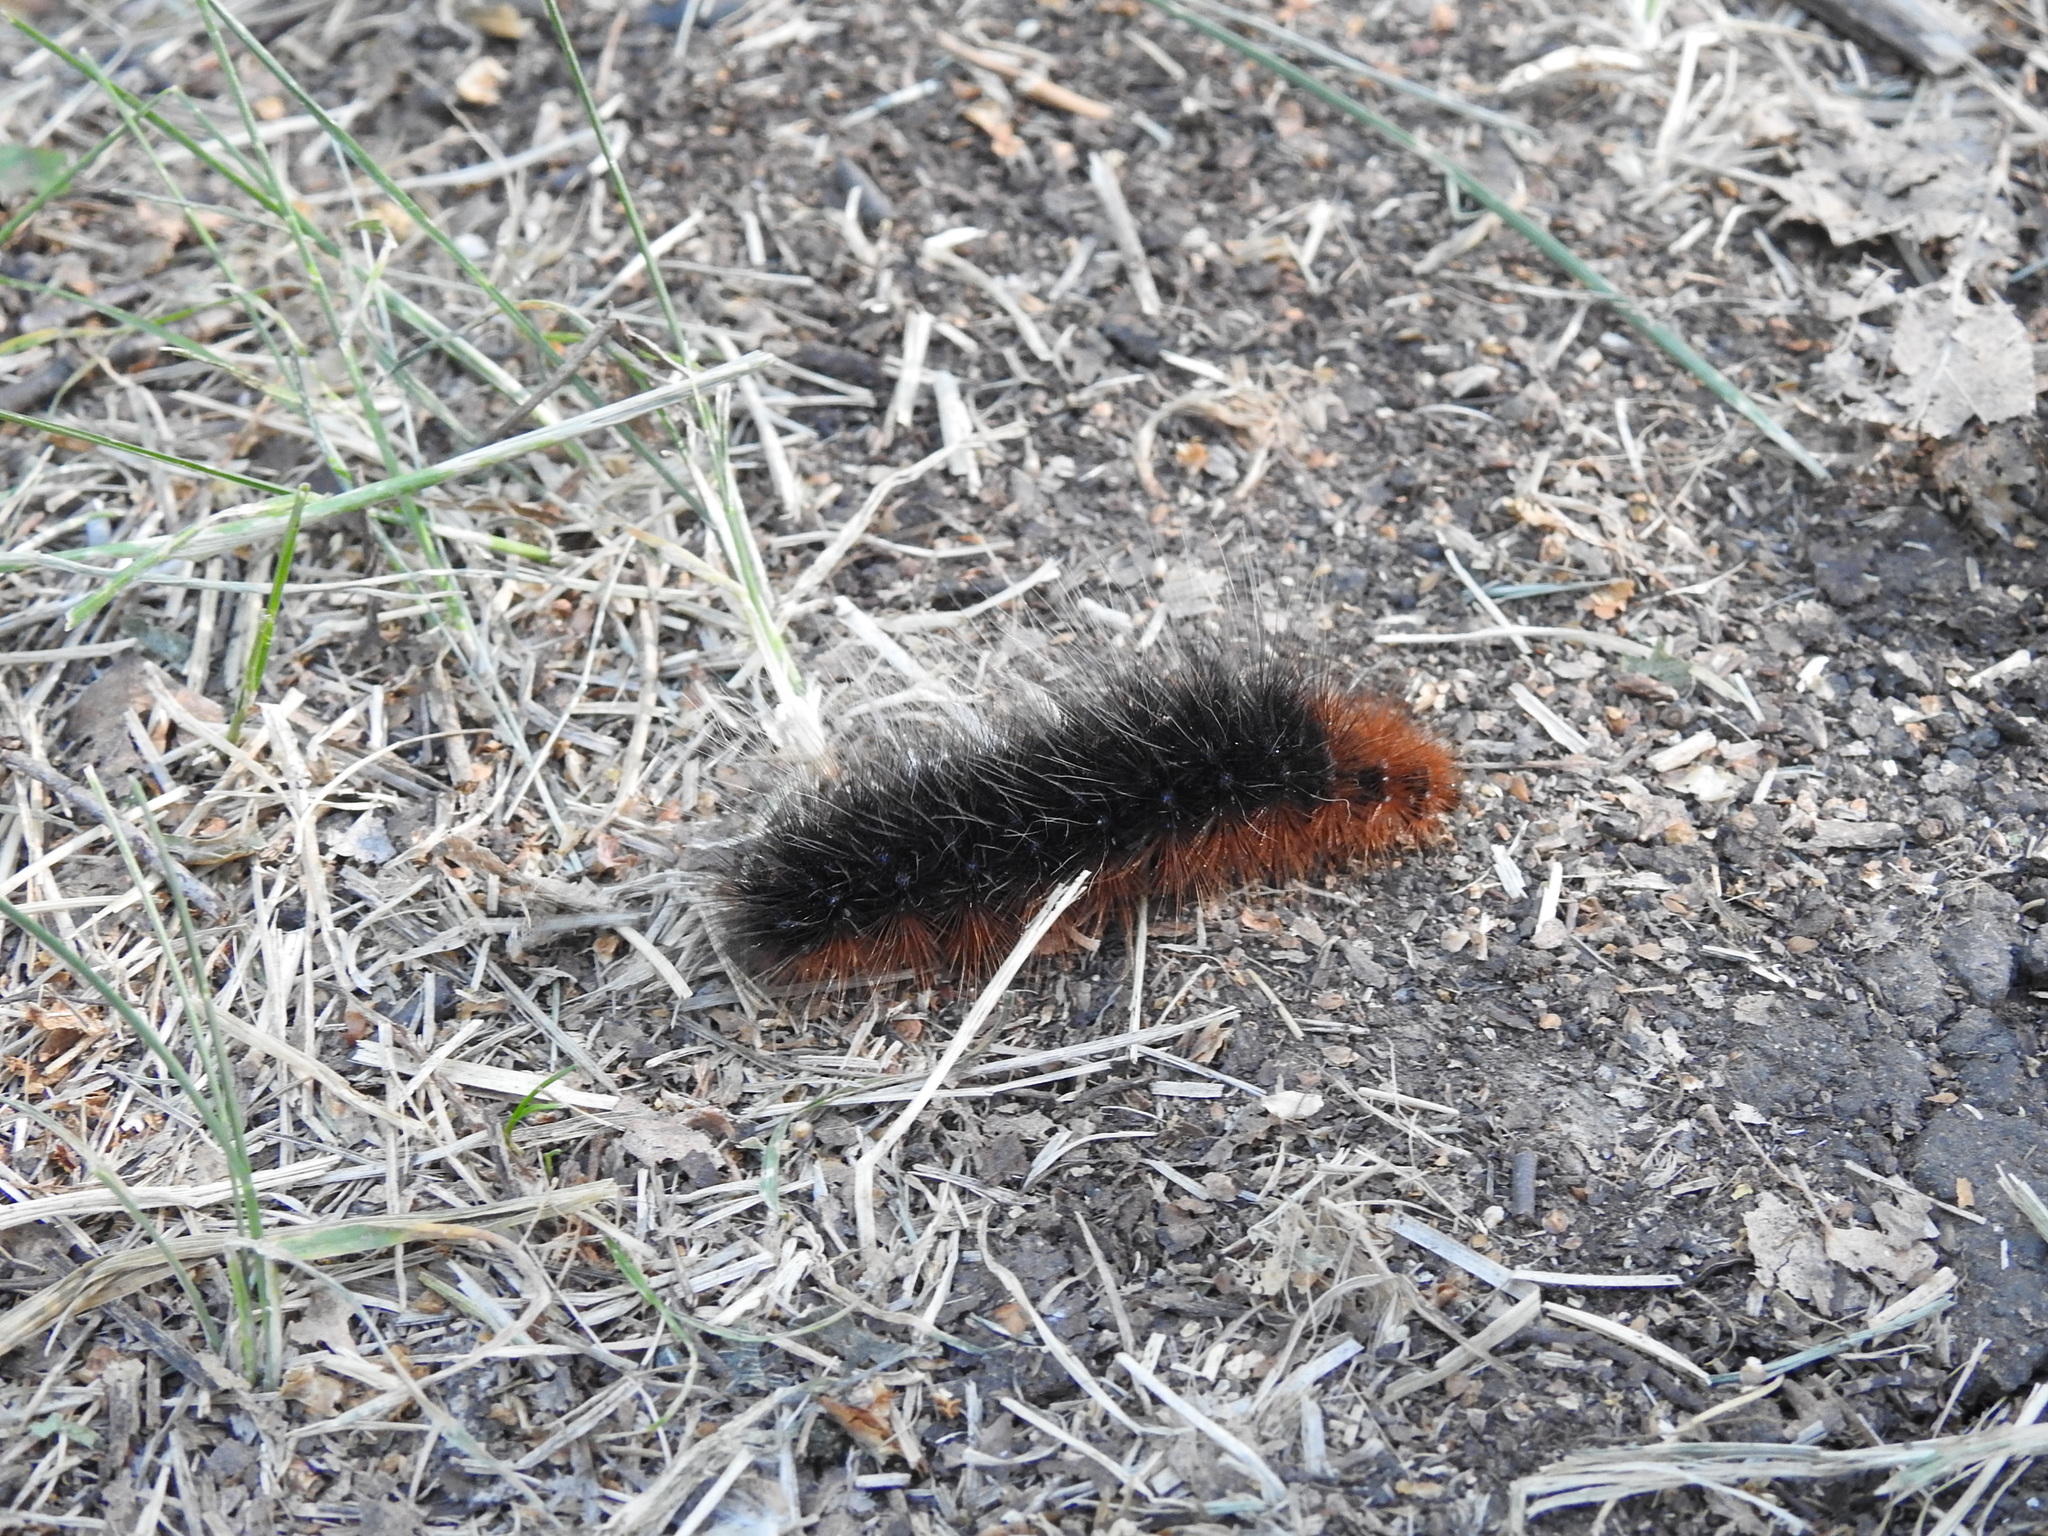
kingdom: Animalia
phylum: Arthropoda
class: Insecta
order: Lepidoptera
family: Erebidae
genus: Arctia
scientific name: Arctia caja
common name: Garden tiger
